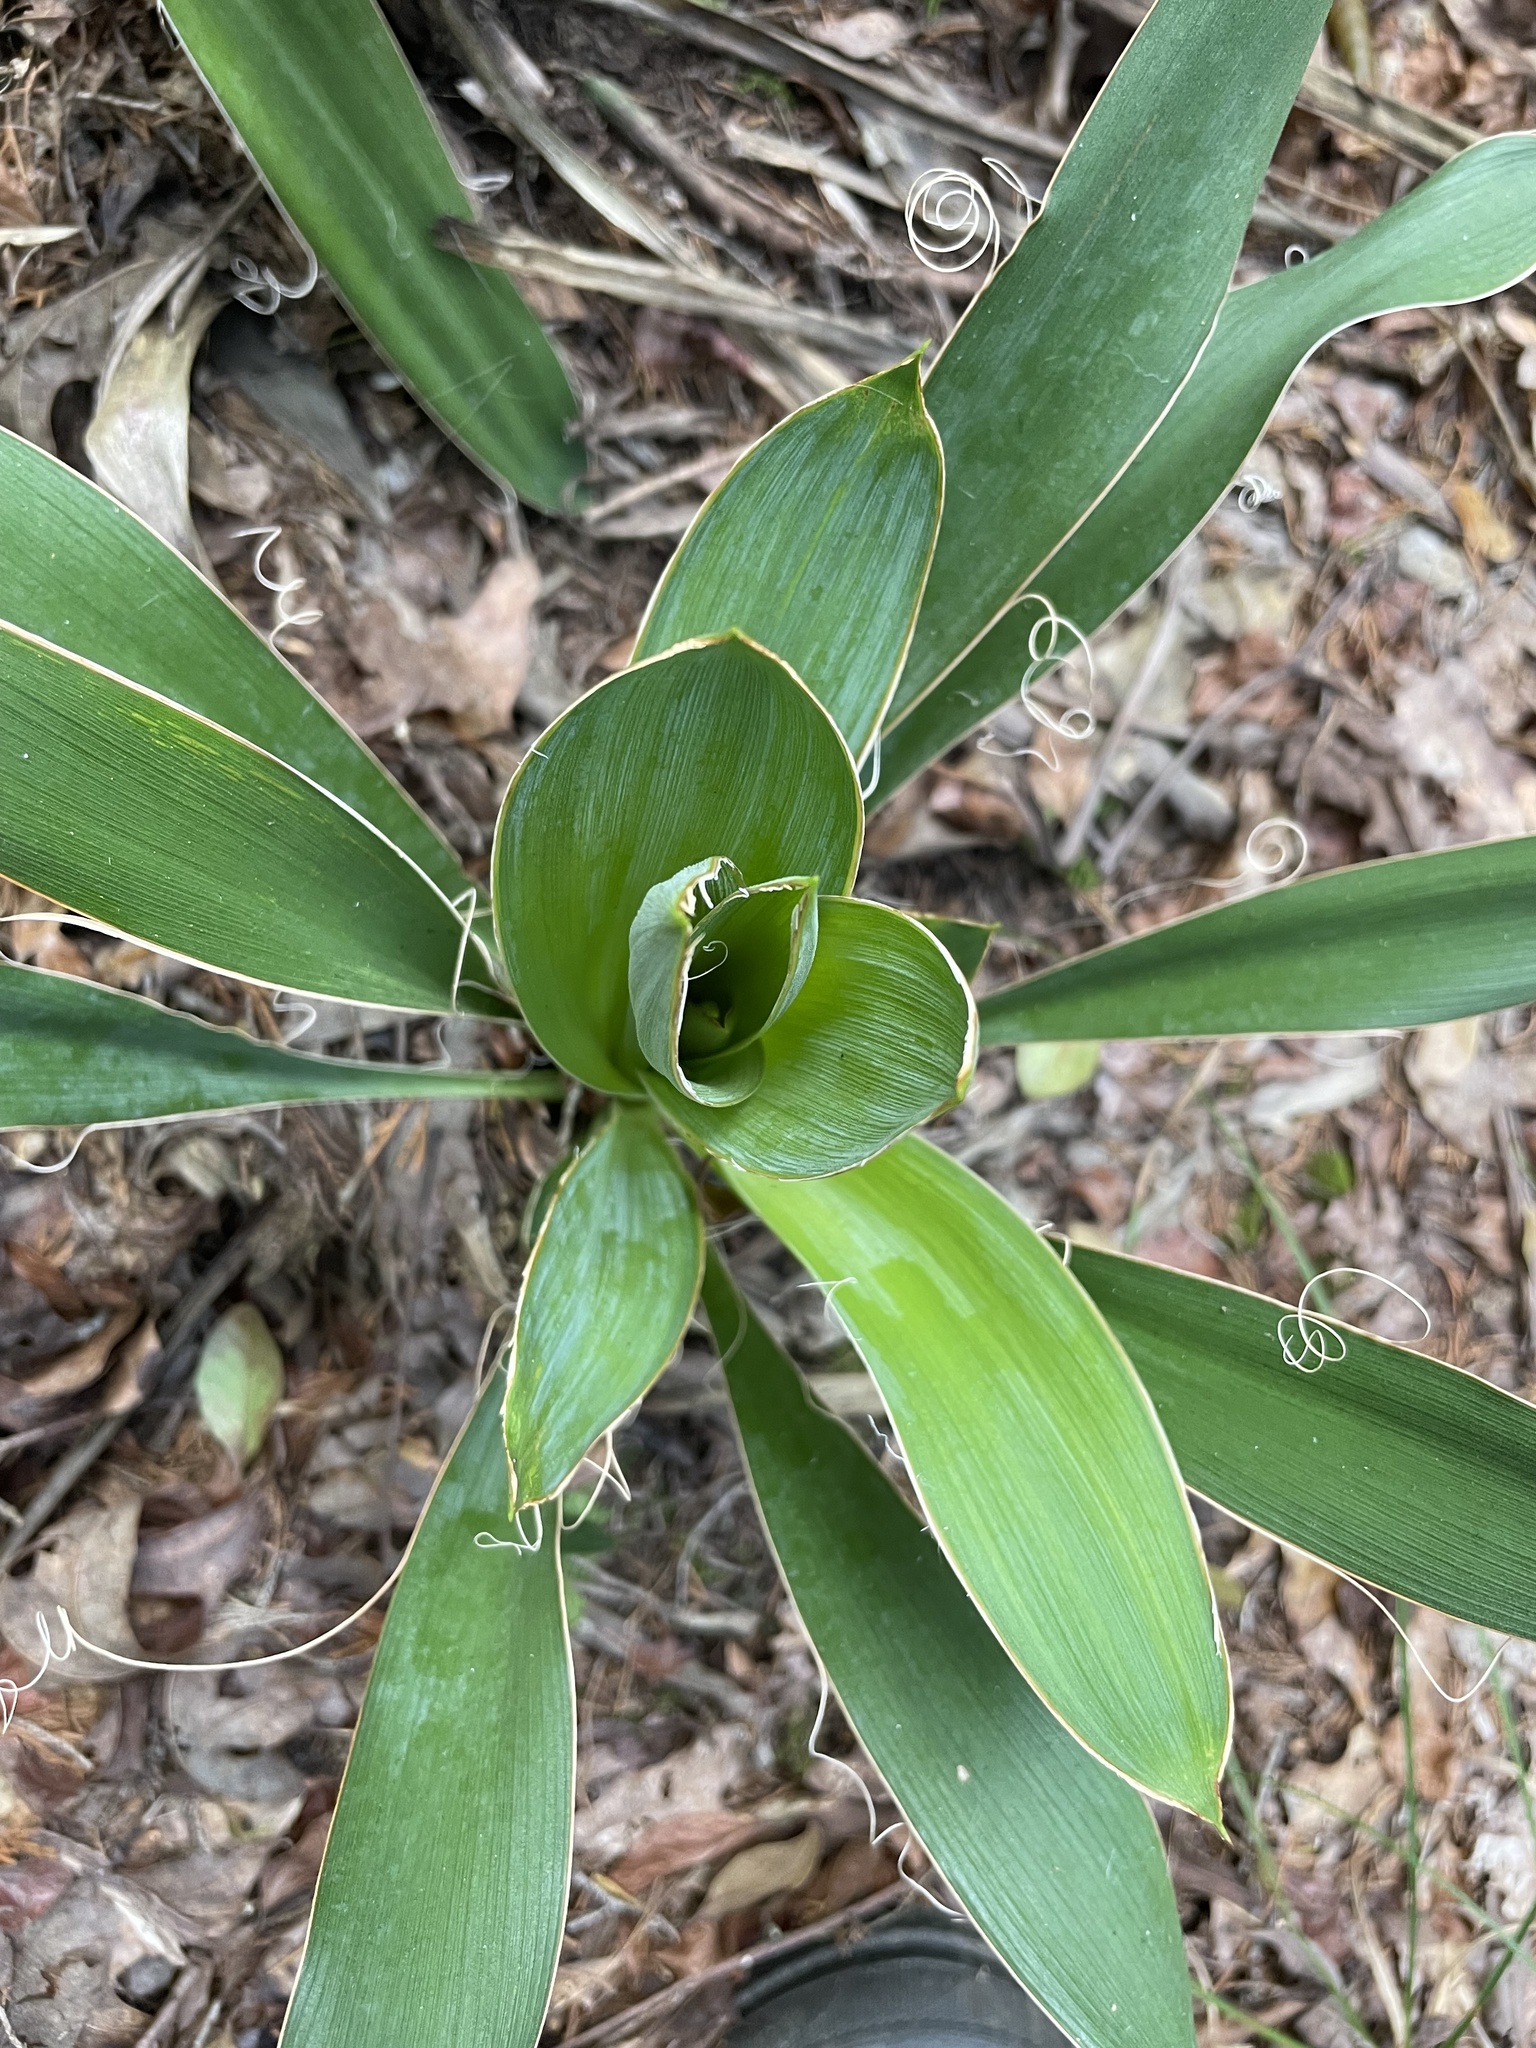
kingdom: Plantae
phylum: Tracheophyta
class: Liliopsida
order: Asparagales
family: Asparagaceae
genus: Yucca
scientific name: Yucca filamentosa
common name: Adam's-needle
